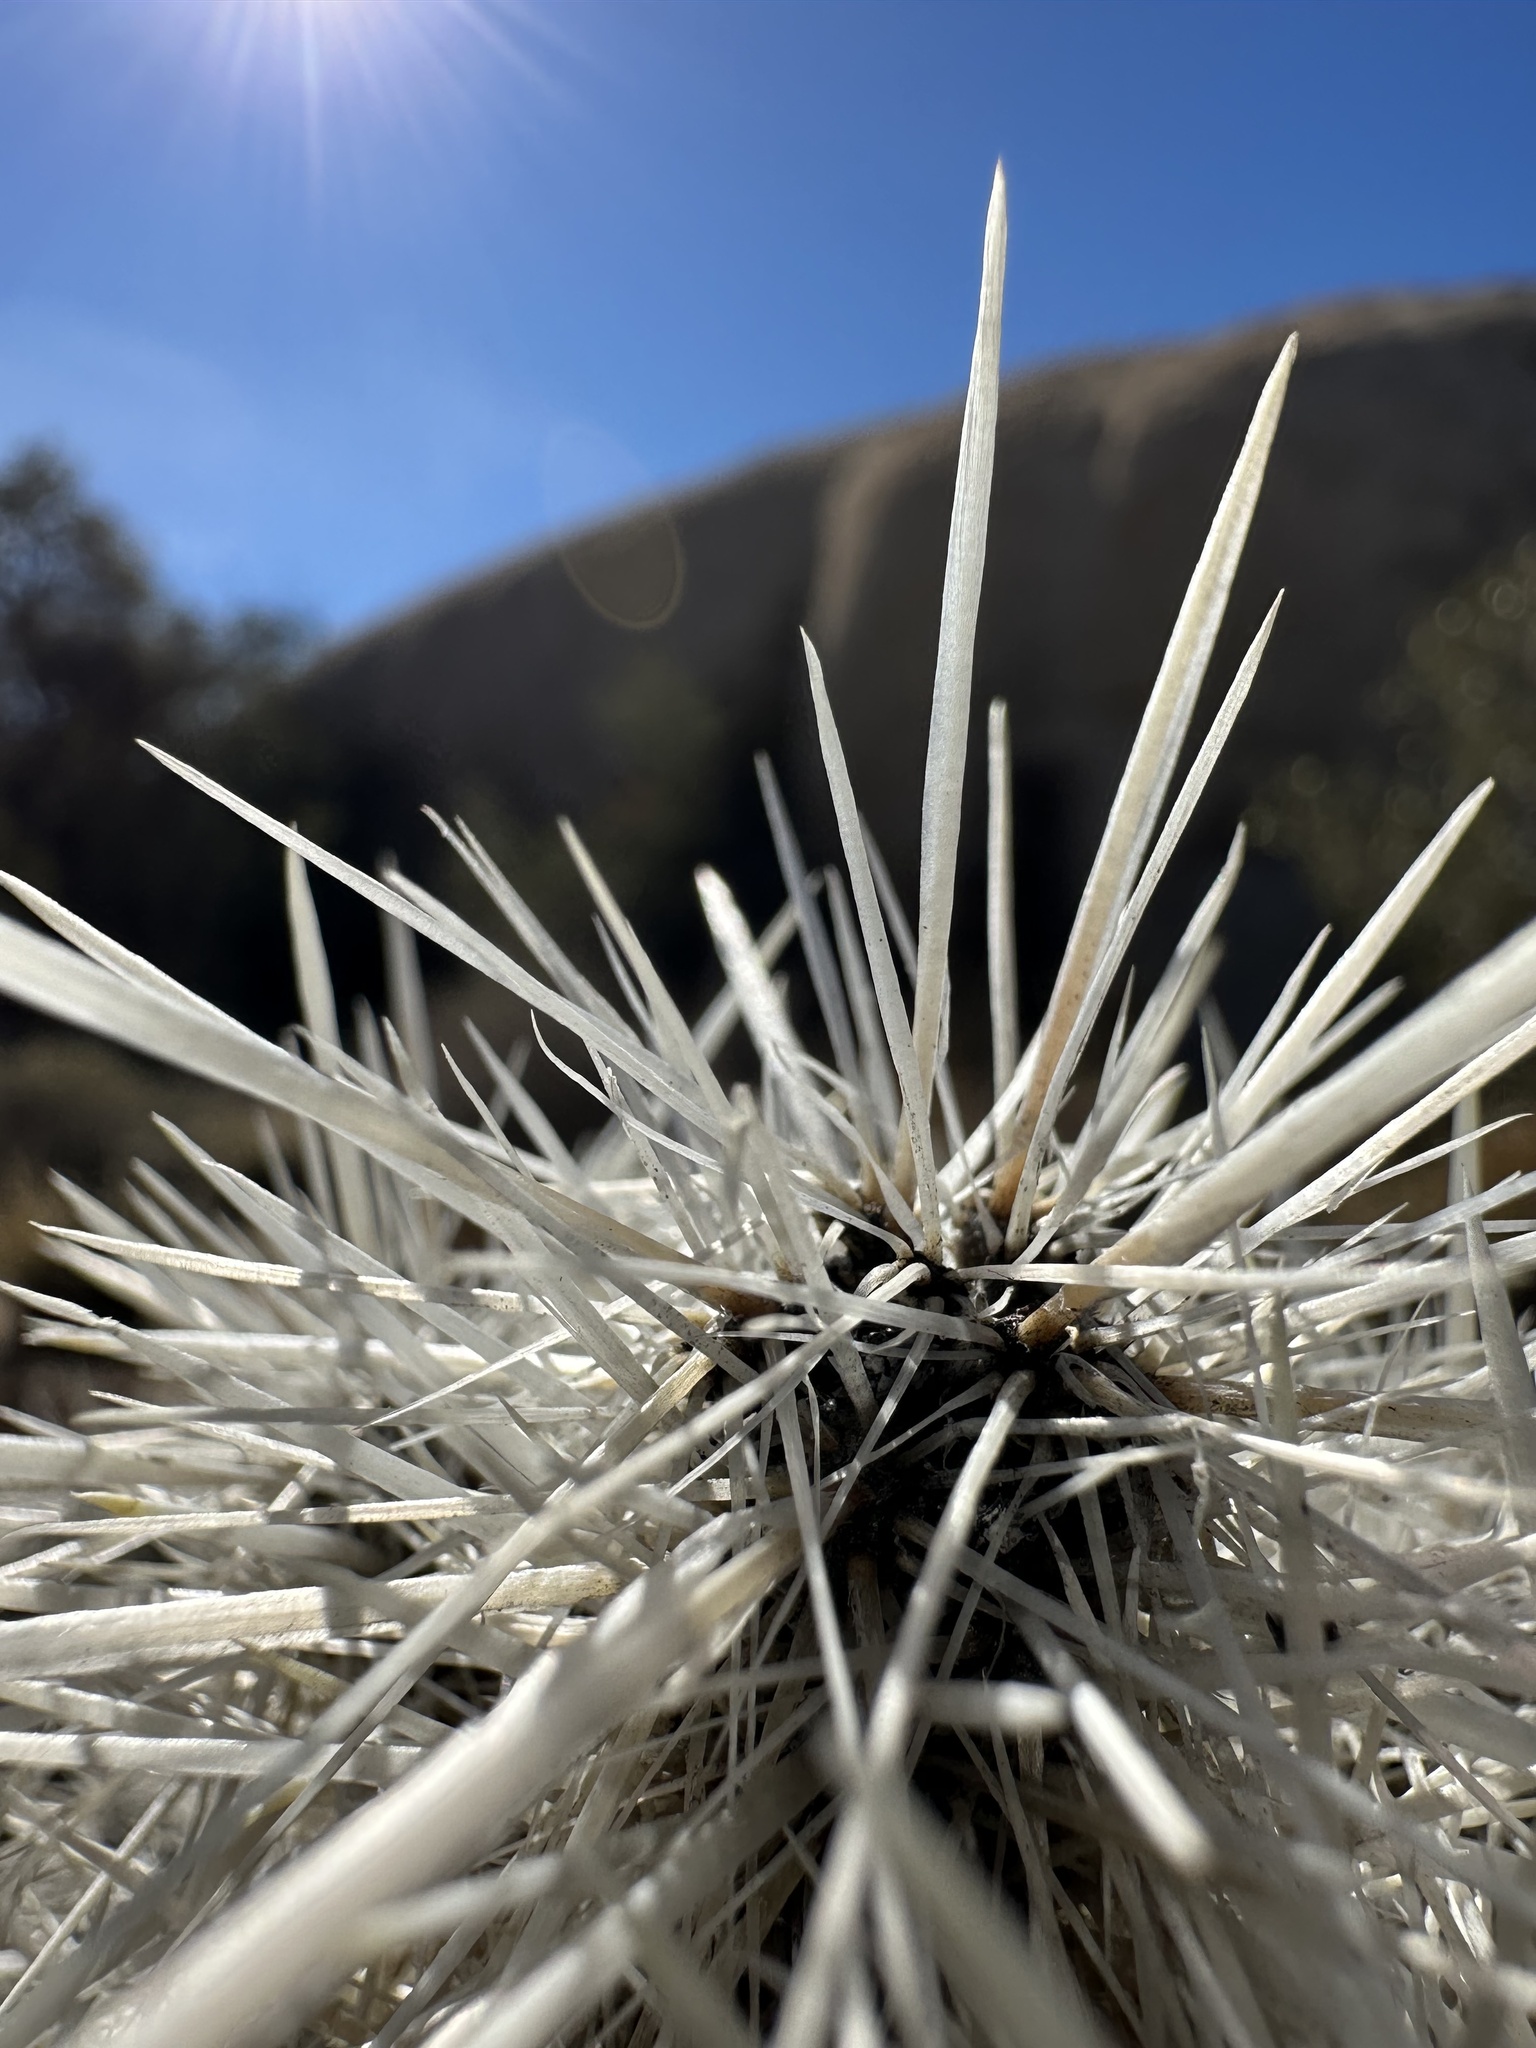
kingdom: Plantae
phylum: Tracheophyta
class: Magnoliopsida
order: Caryophyllales
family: Cactaceae
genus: Cylindropuntia
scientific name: Cylindropuntia echinocarpa
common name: Ground cholla
